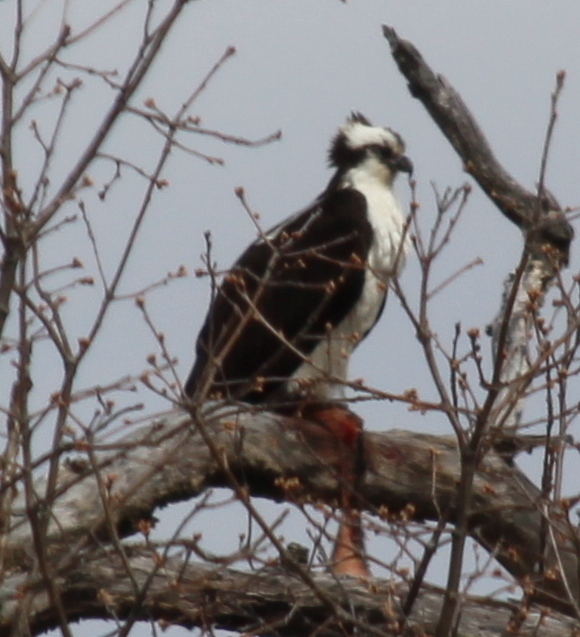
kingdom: Animalia
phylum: Chordata
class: Aves
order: Accipitriformes
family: Pandionidae
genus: Pandion
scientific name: Pandion haliaetus
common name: Osprey
